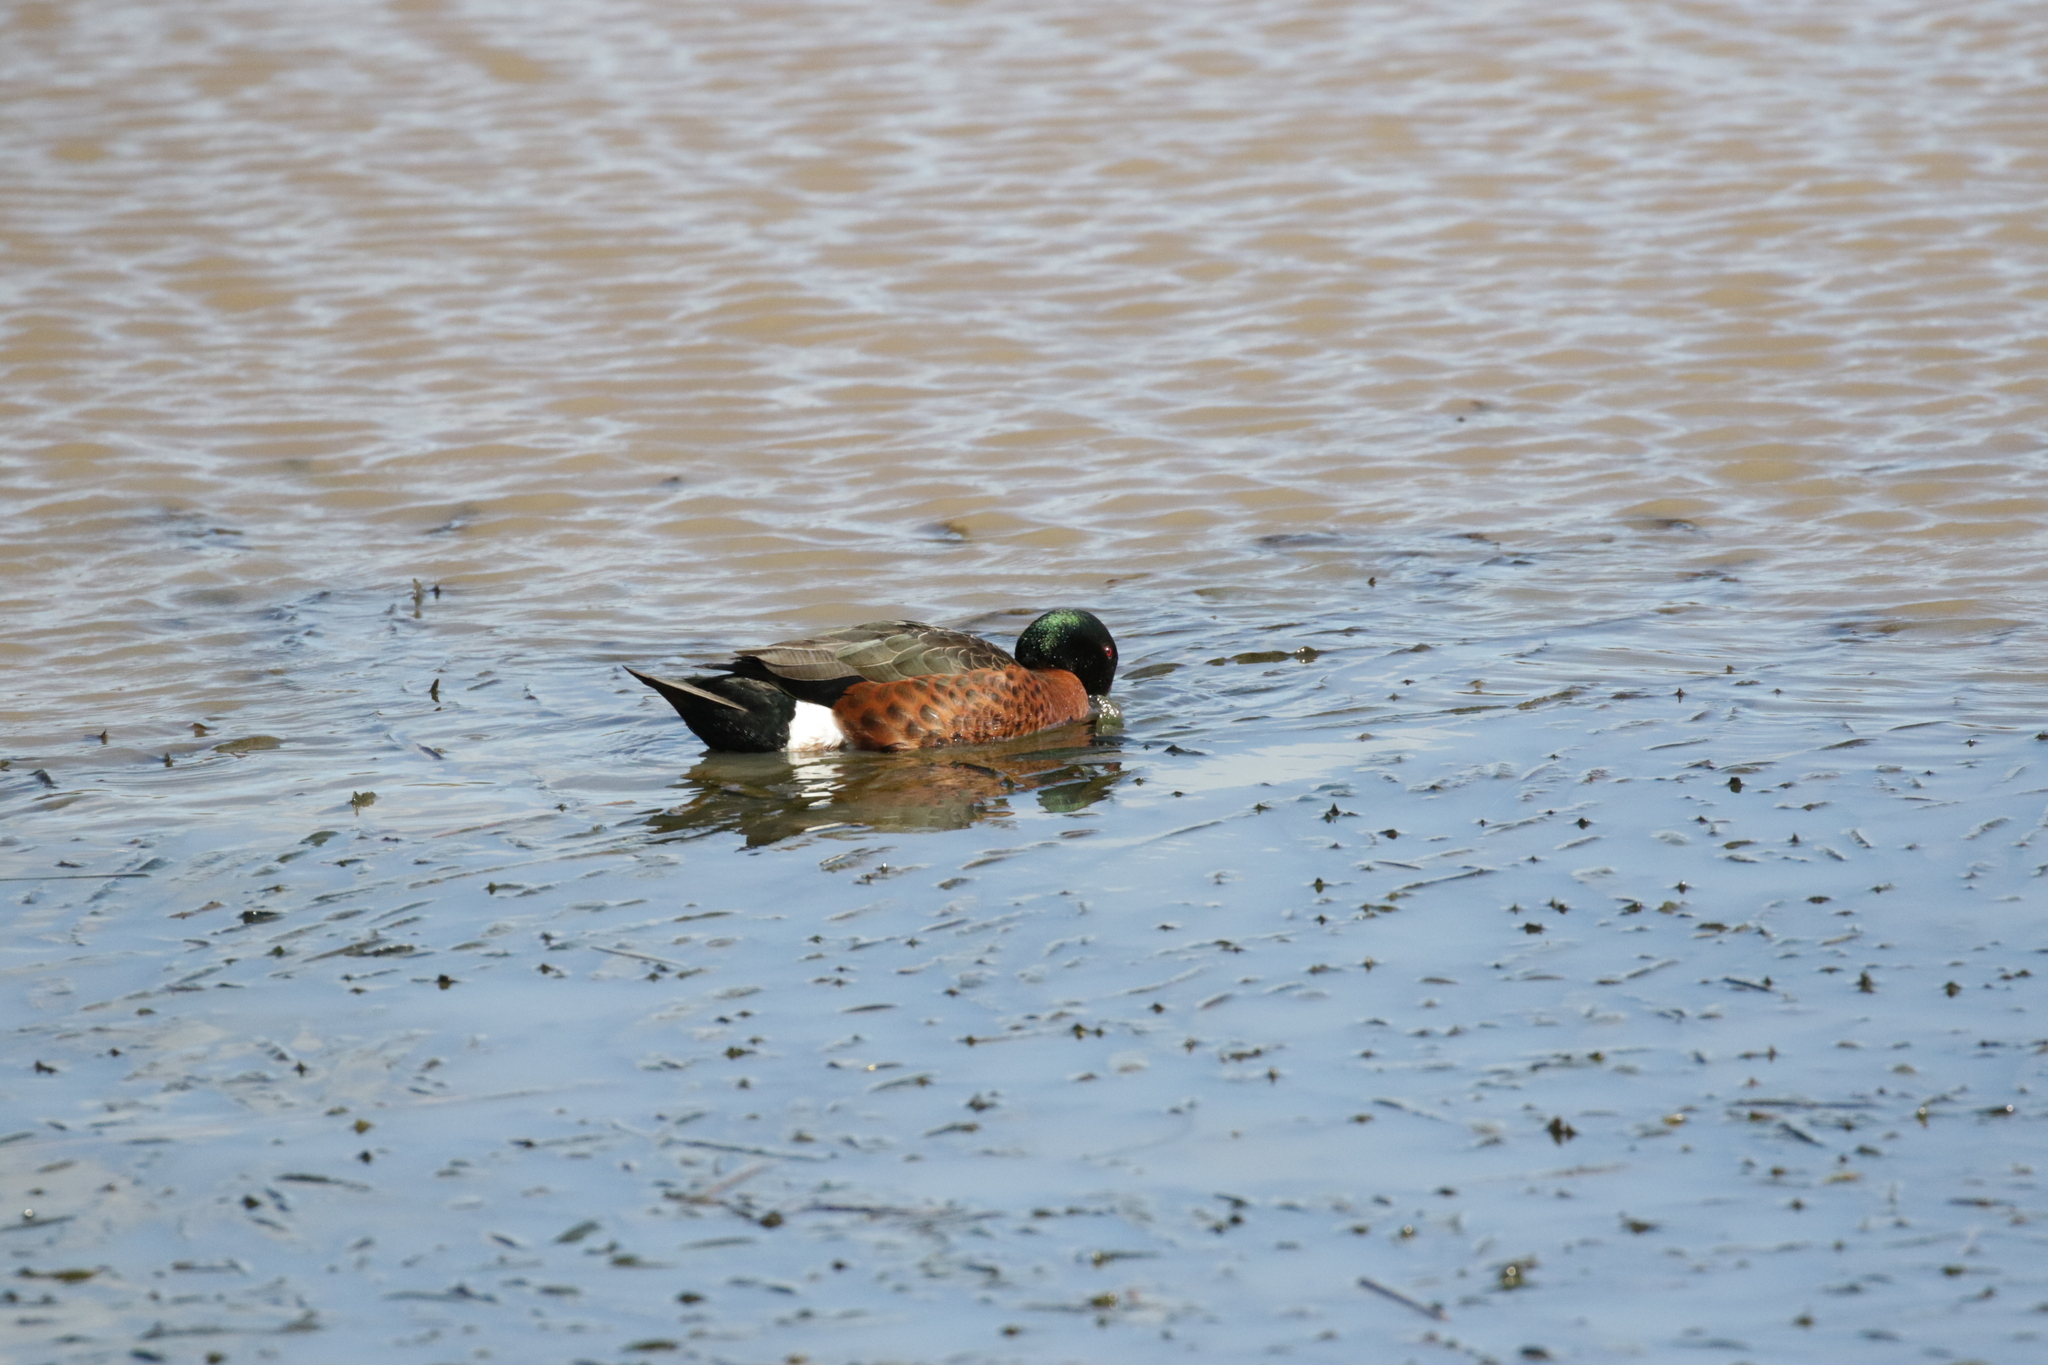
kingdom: Animalia
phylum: Chordata
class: Aves
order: Anseriformes
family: Anatidae
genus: Anas
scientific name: Anas castanea
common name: Chestnut teal
